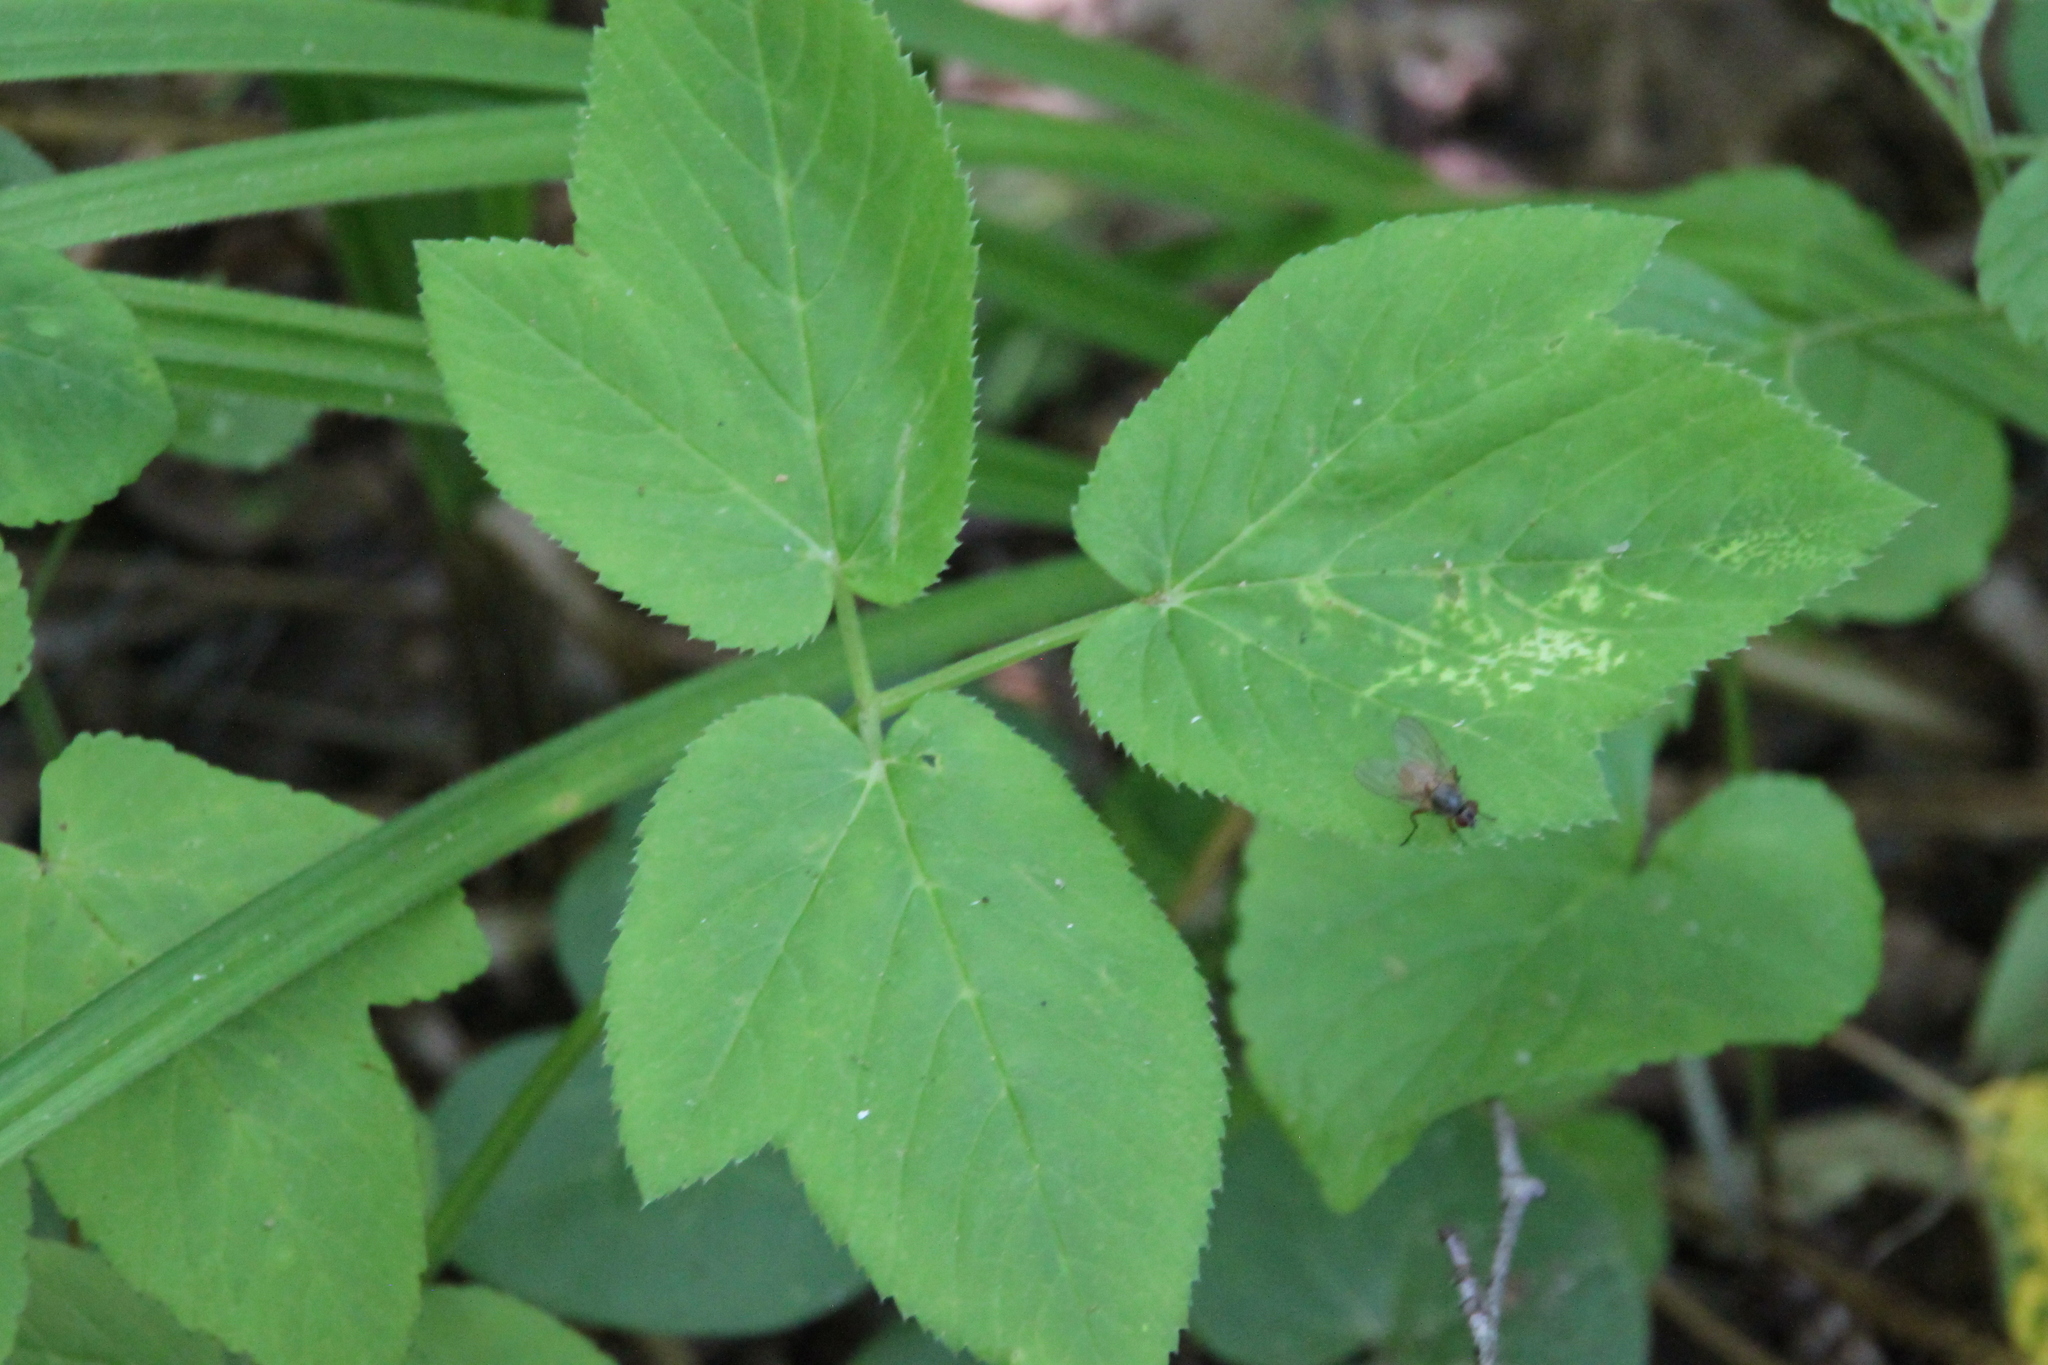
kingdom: Plantae
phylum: Tracheophyta
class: Magnoliopsida
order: Apiales
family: Apiaceae
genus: Aegopodium
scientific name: Aegopodium podagraria
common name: Ground-elder
